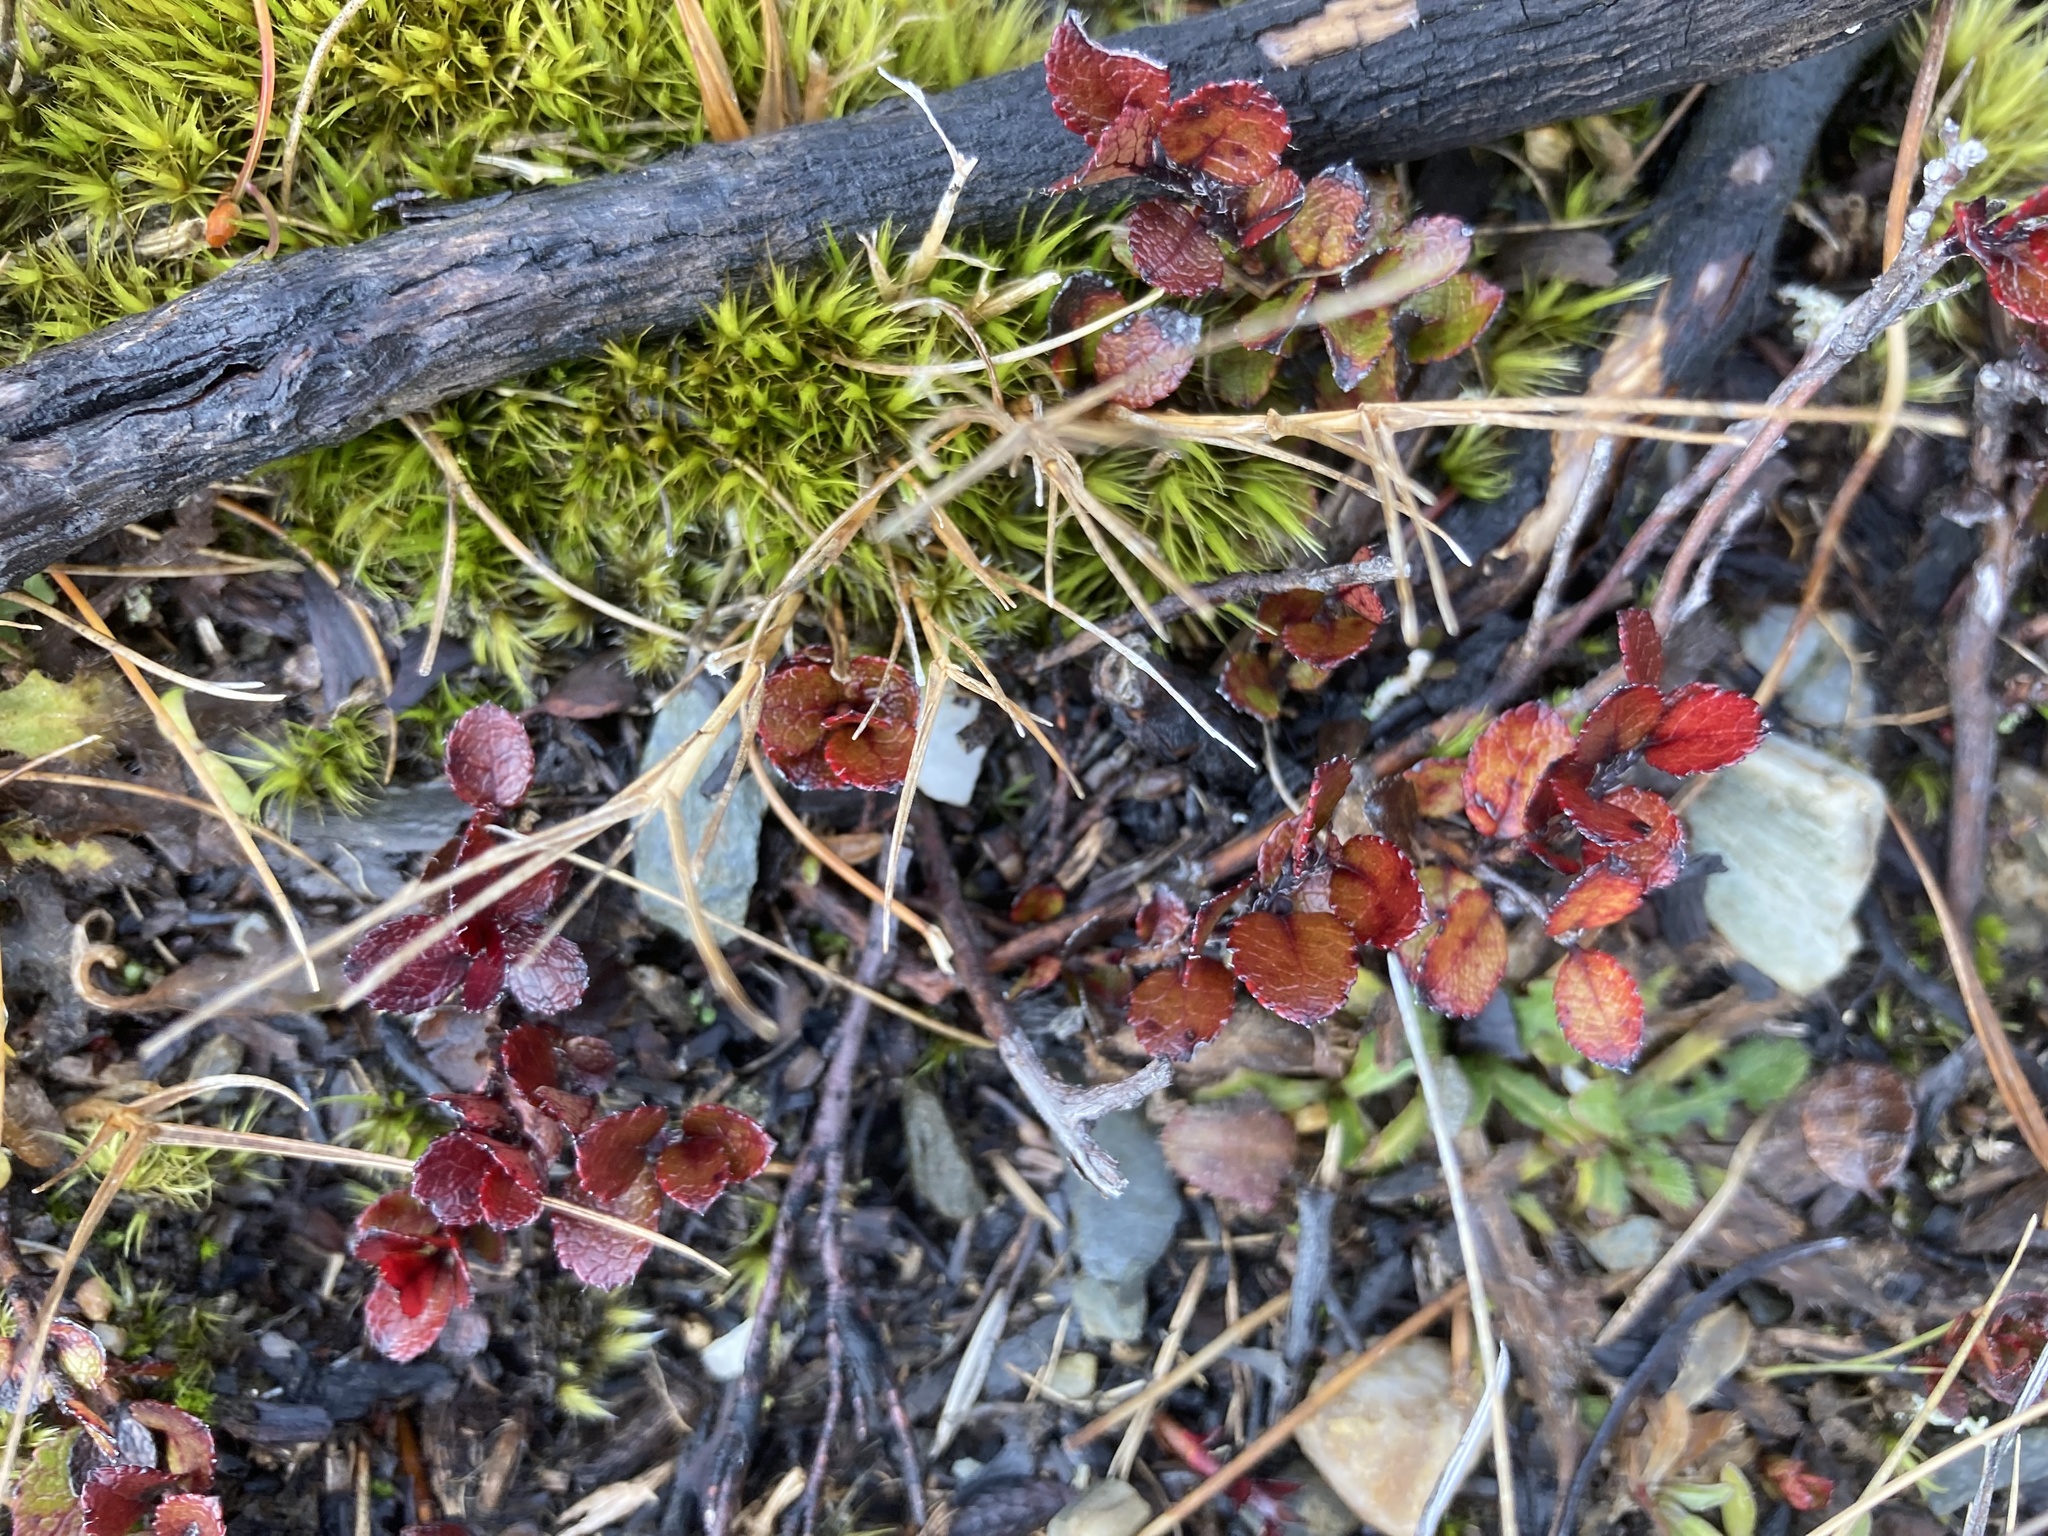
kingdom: Plantae
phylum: Tracheophyta
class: Magnoliopsida
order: Ericales
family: Ericaceae
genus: Gaultheria
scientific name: Gaultheria depressa
